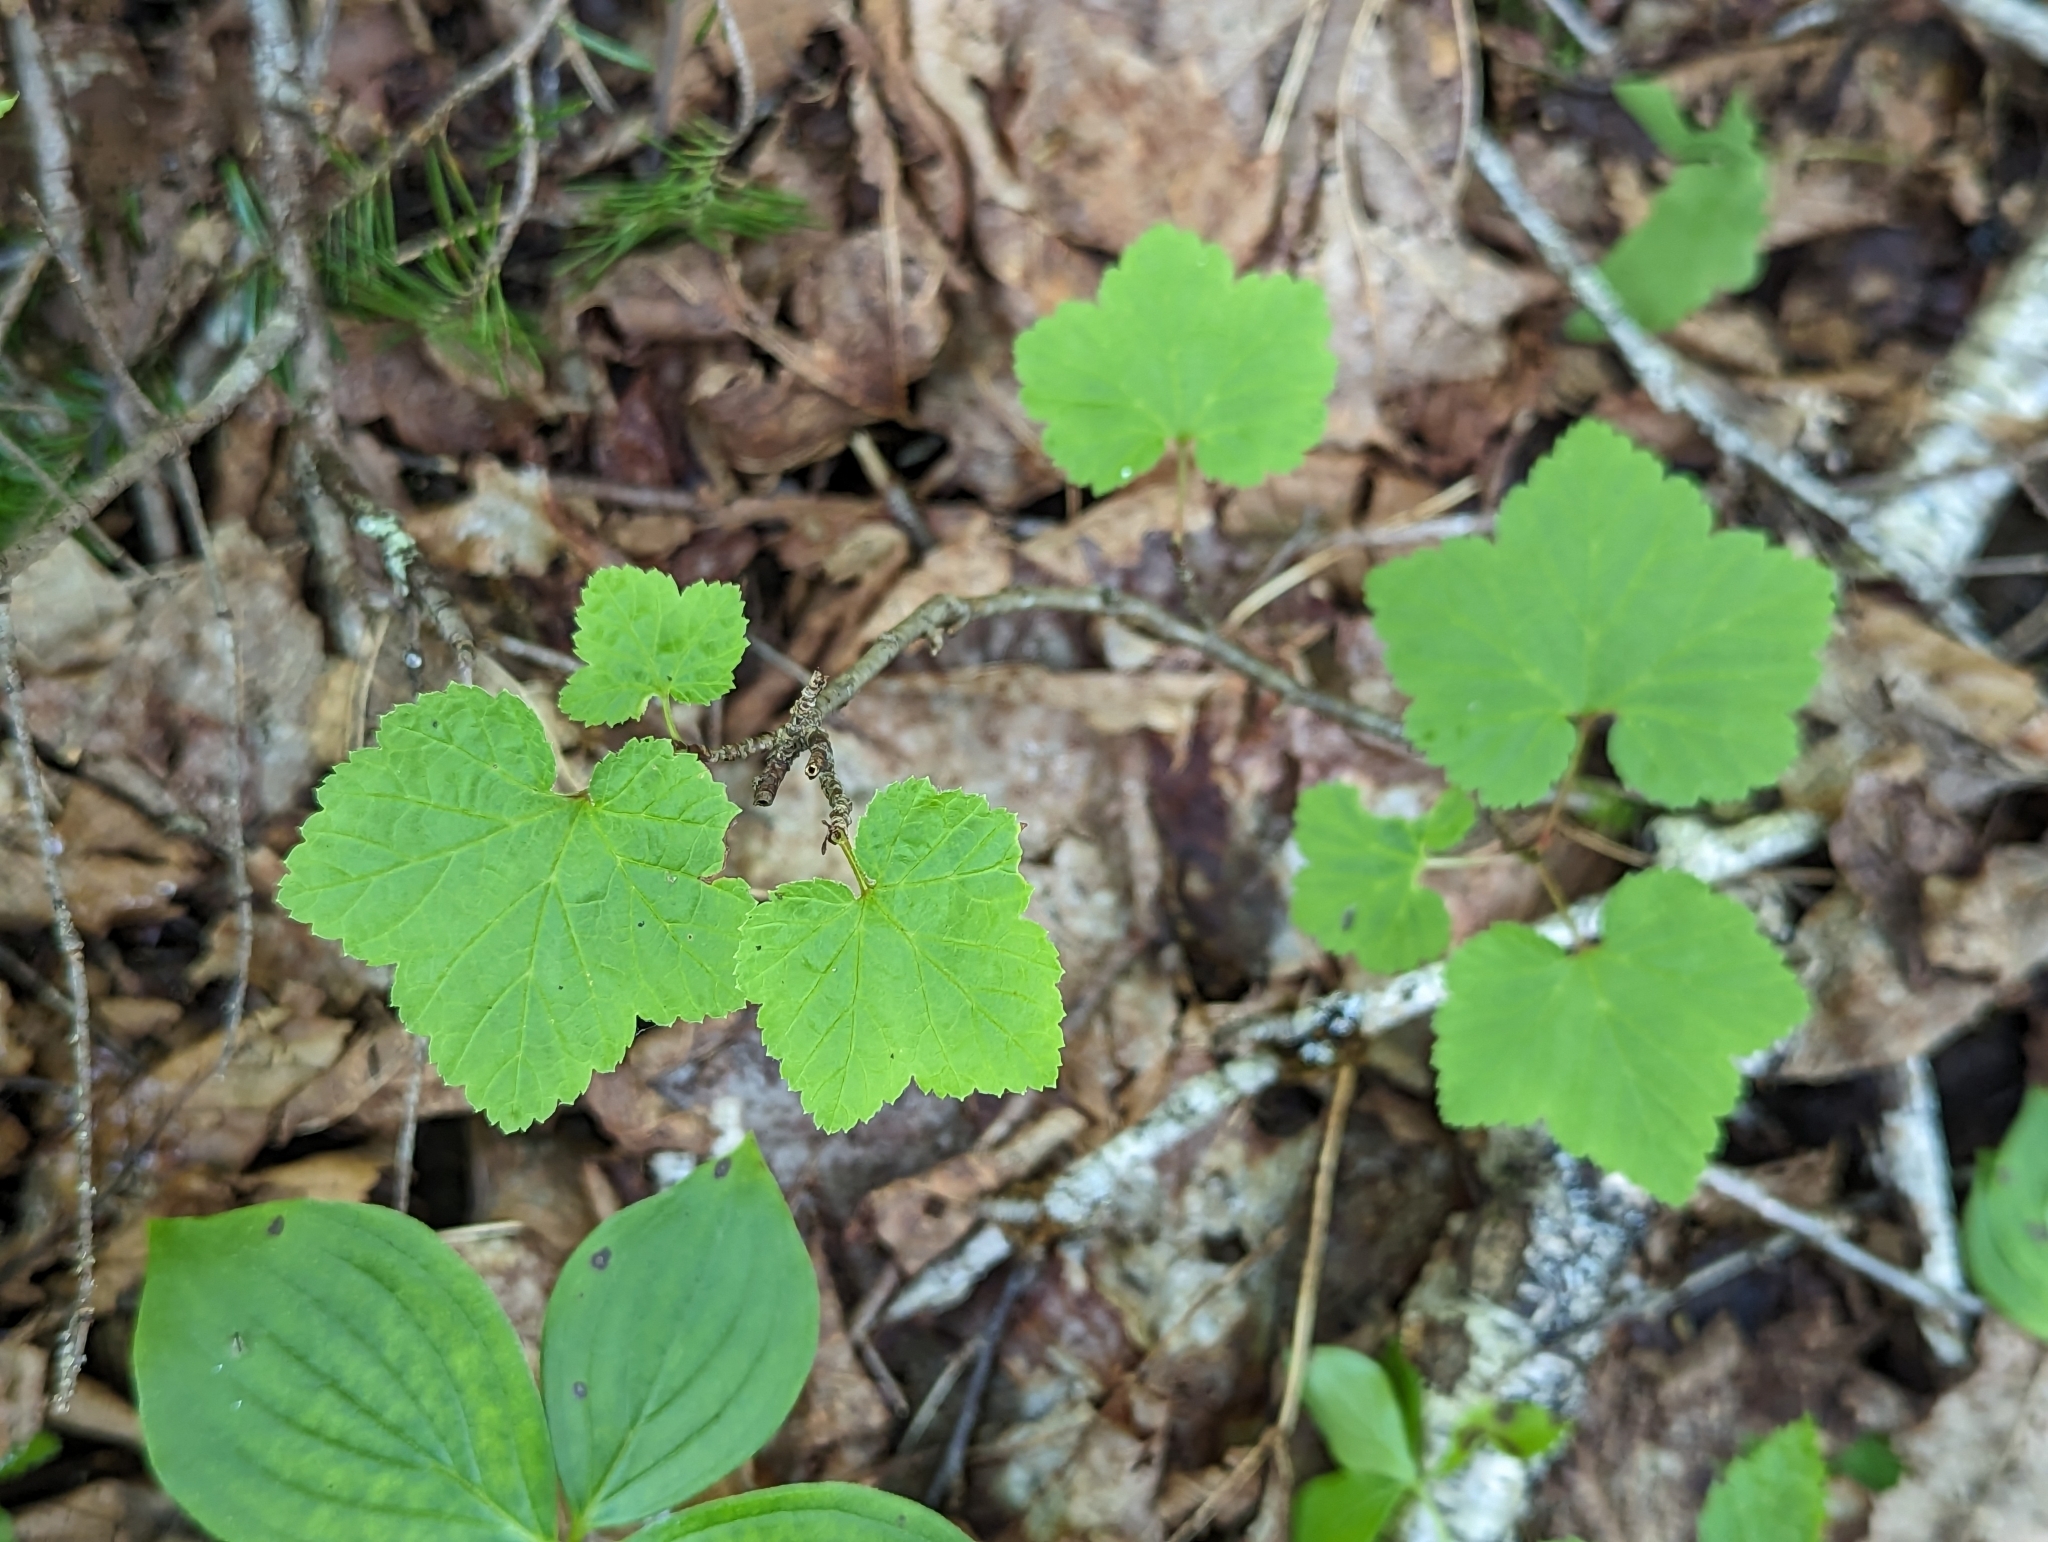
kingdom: Plantae
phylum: Tracheophyta
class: Magnoliopsida
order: Saxifragales
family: Grossulariaceae
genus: Ribes
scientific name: Ribes triste
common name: Swamp red currant
